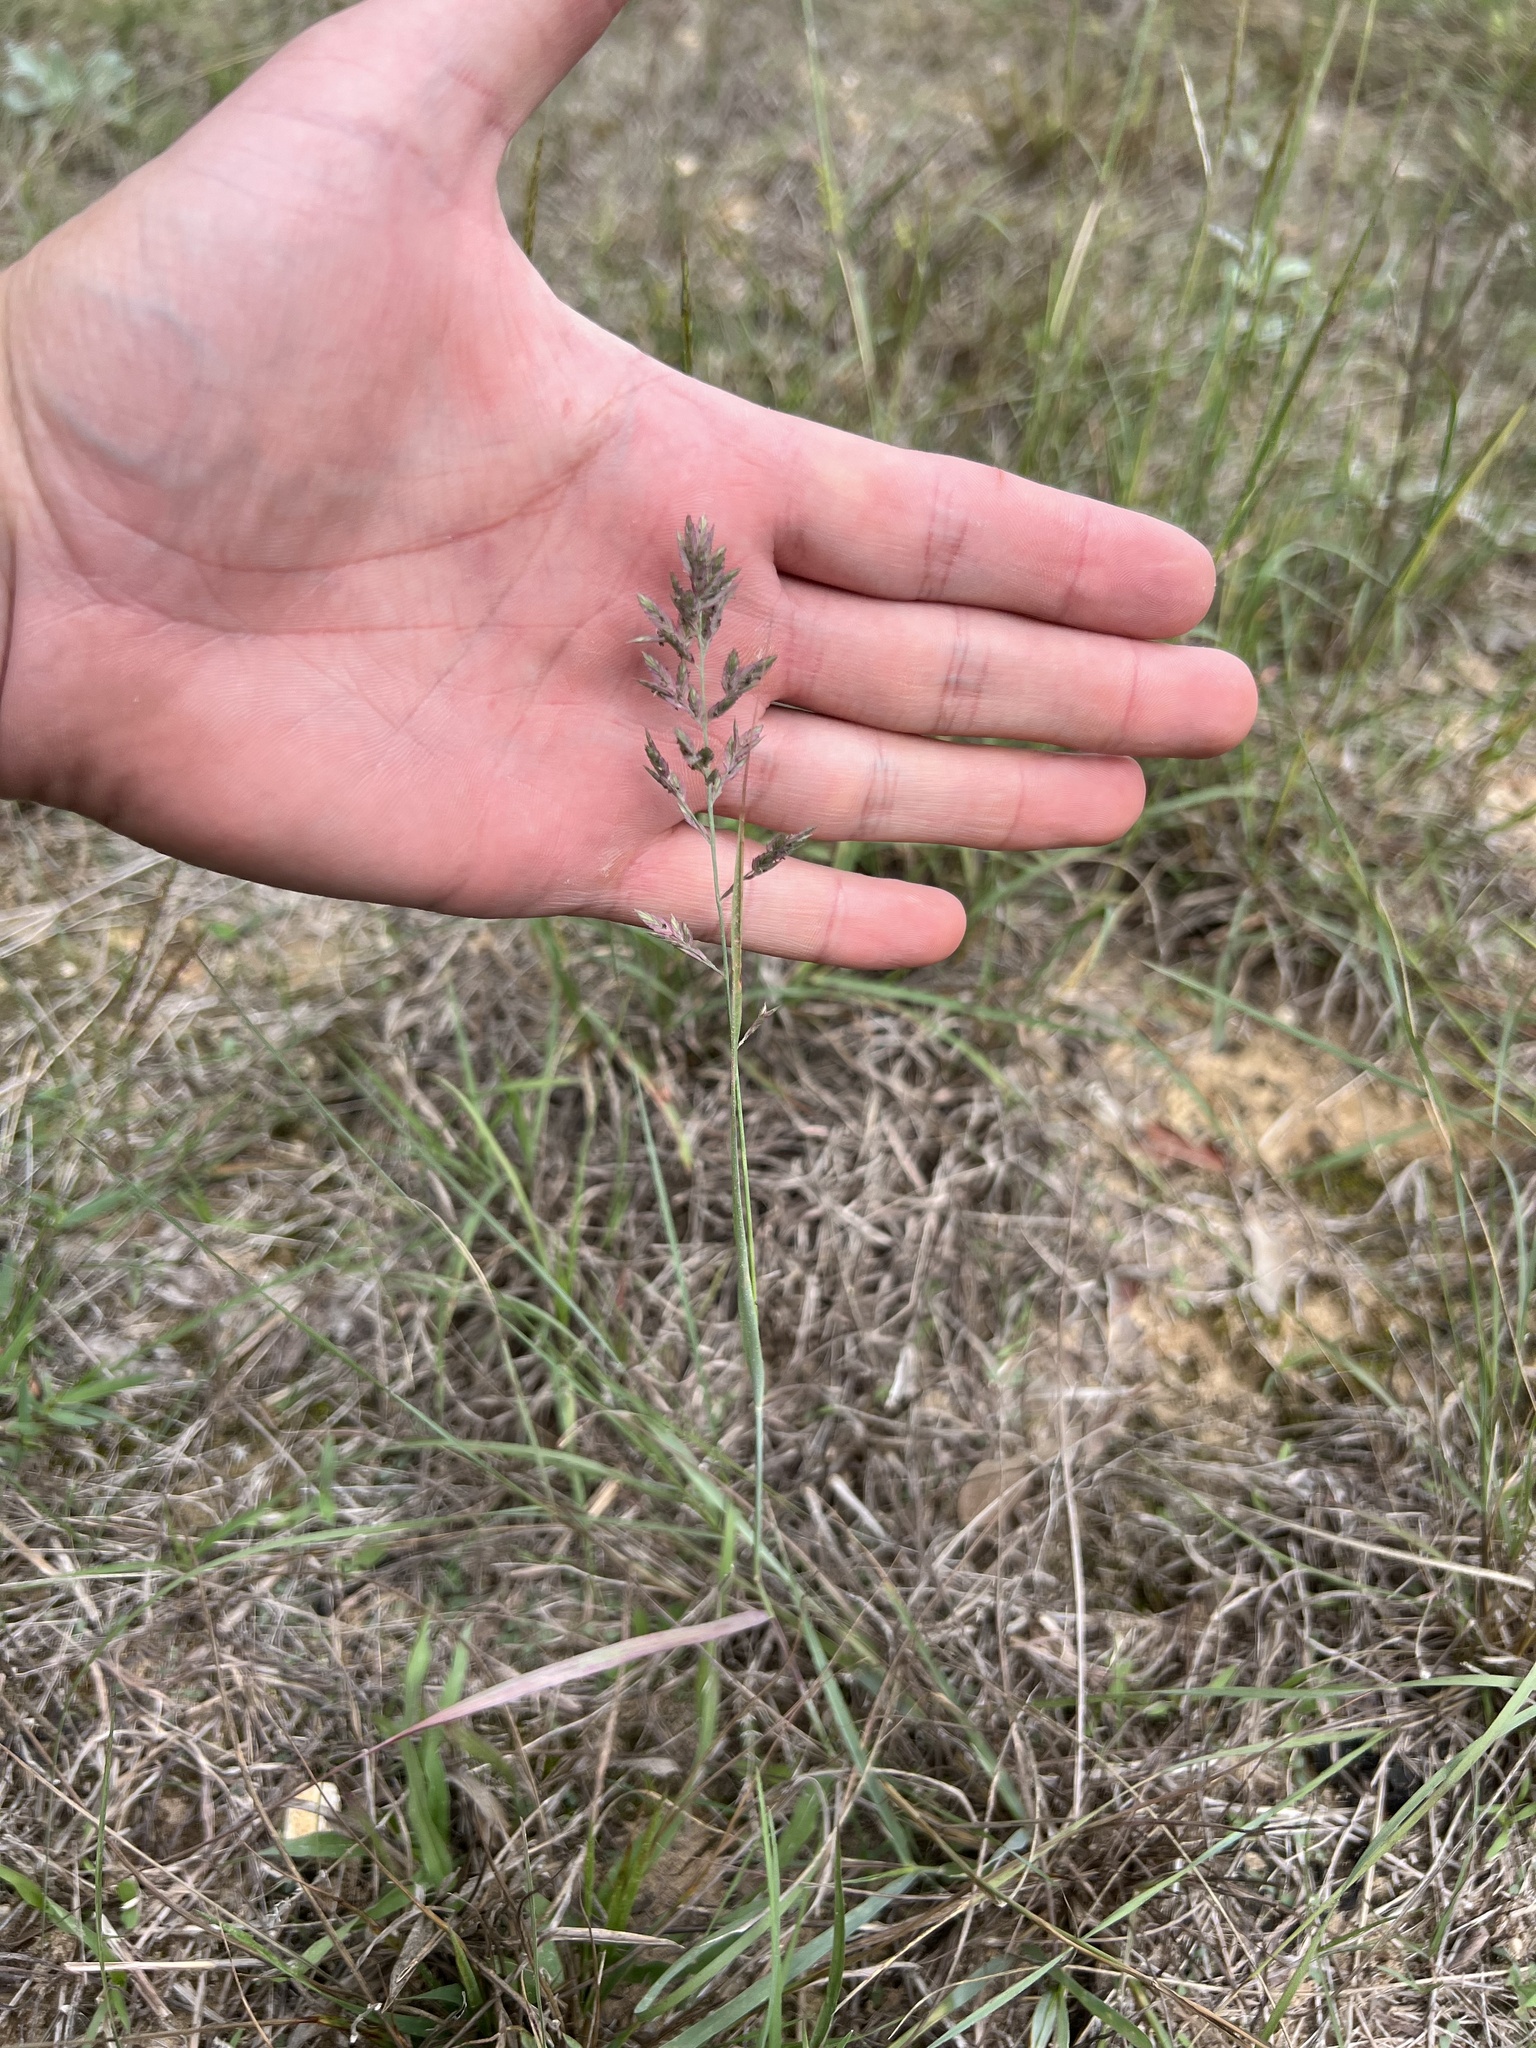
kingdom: Plantae
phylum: Tracheophyta
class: Liliopsida
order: Poales
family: Poaceae
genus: Eragrostis
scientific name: Eragrostis secundiflora
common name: Red love grass
